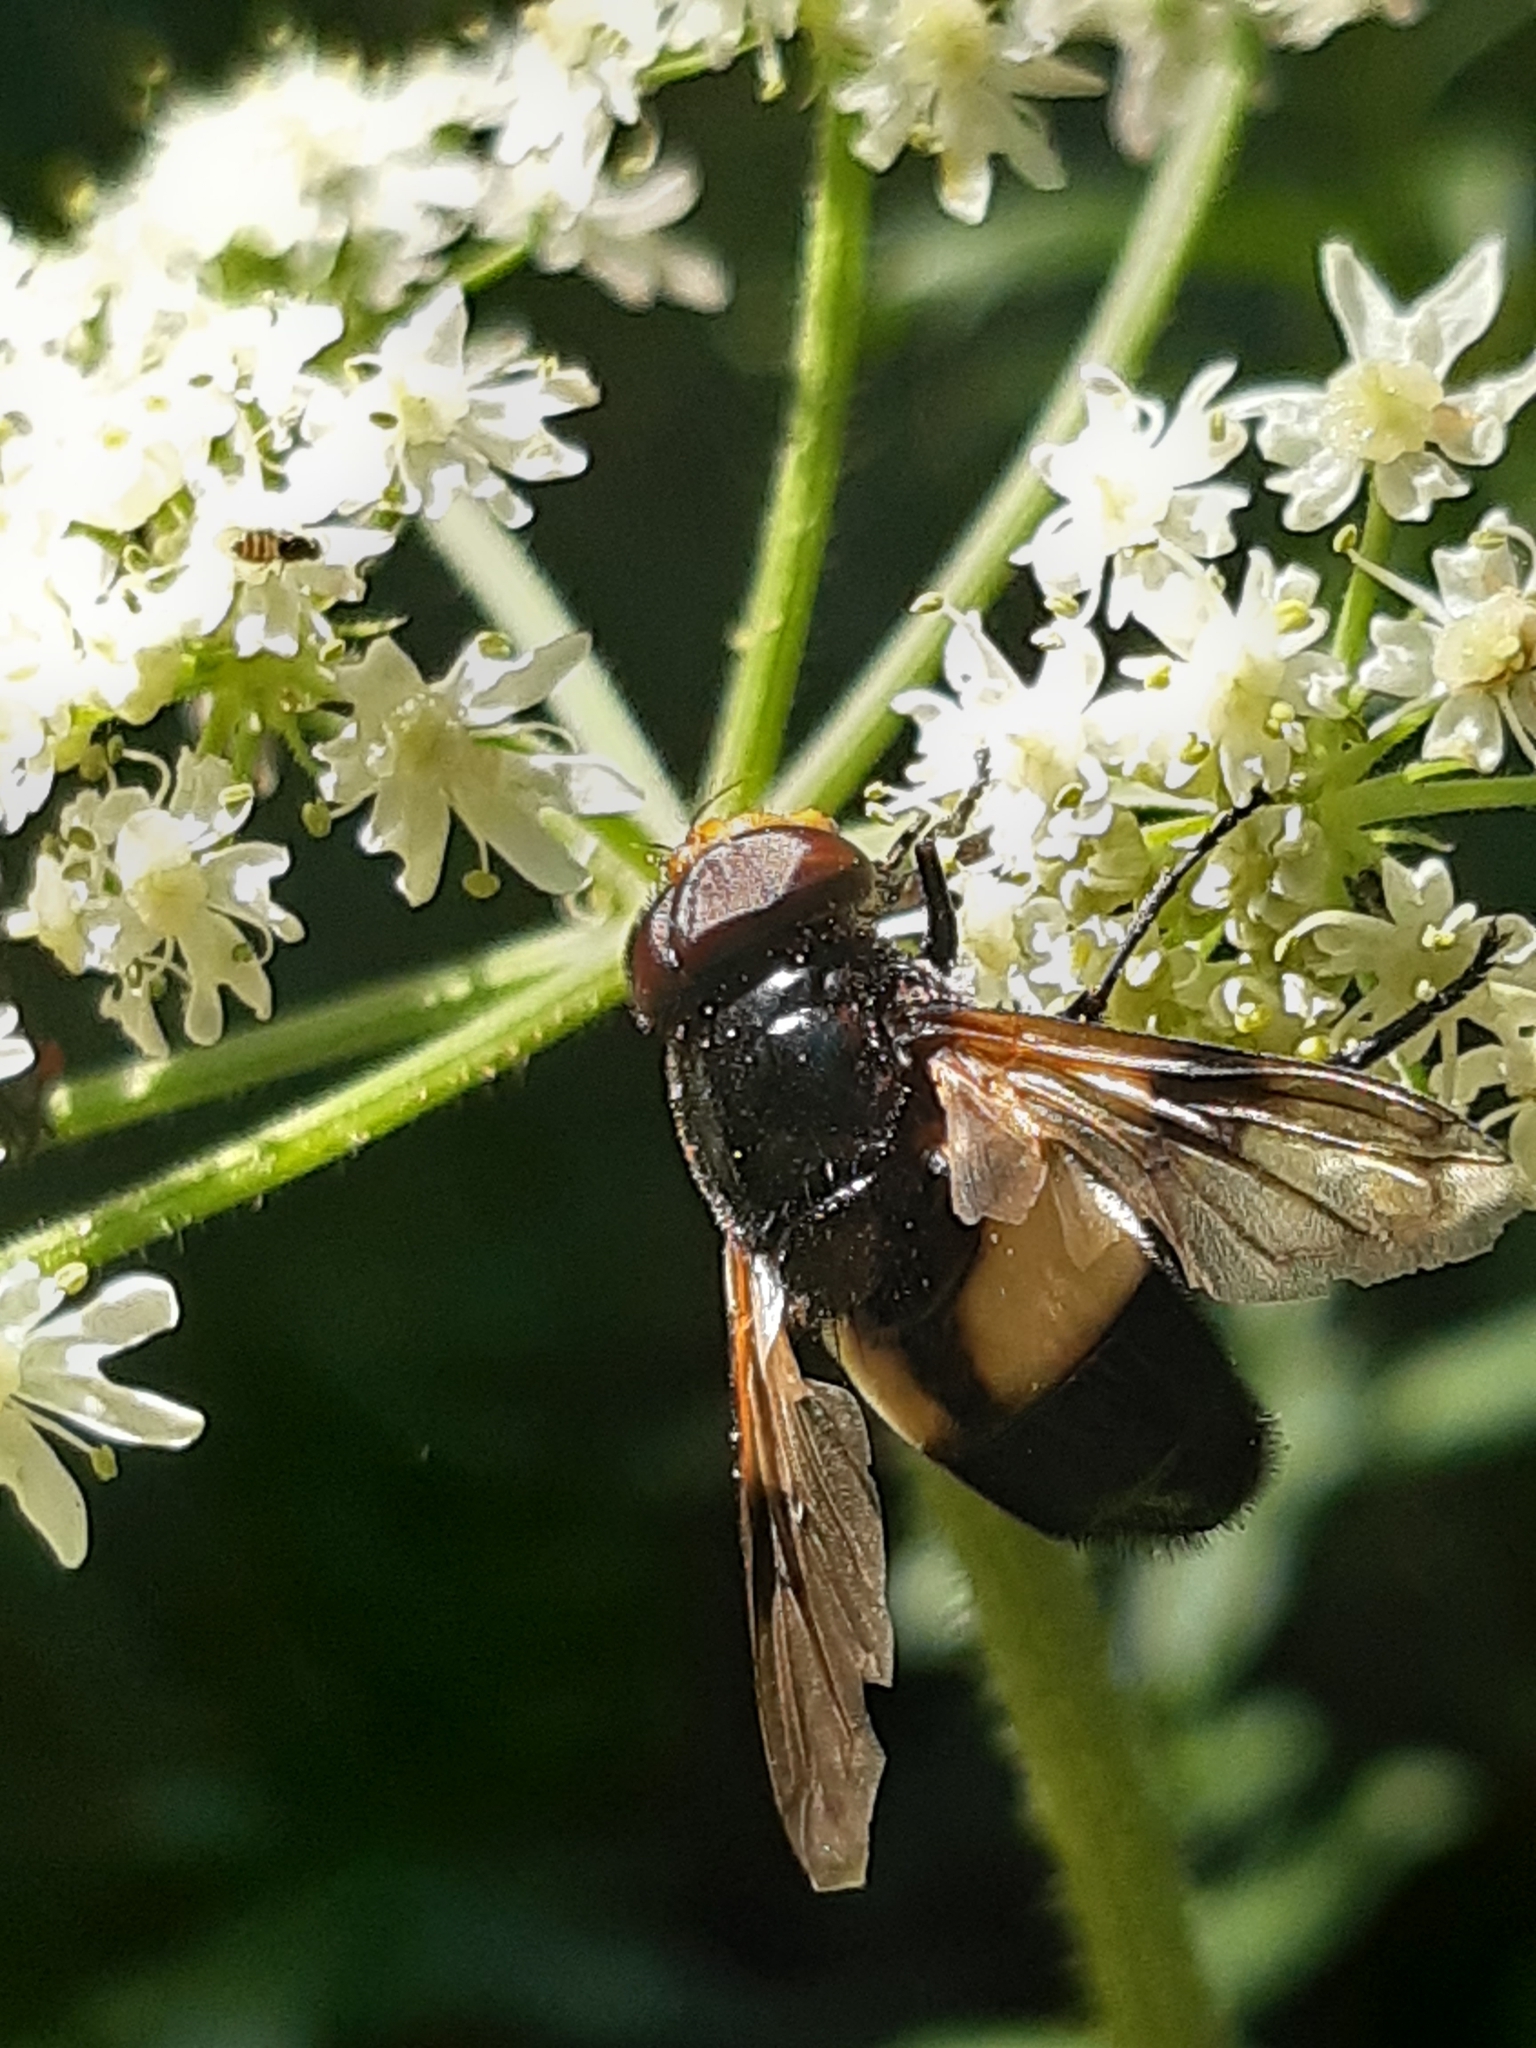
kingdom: Animalia
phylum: Arthropoda
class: Insecta
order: Diptera
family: Syrphidae
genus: Volucella
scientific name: Volucella pellucens
